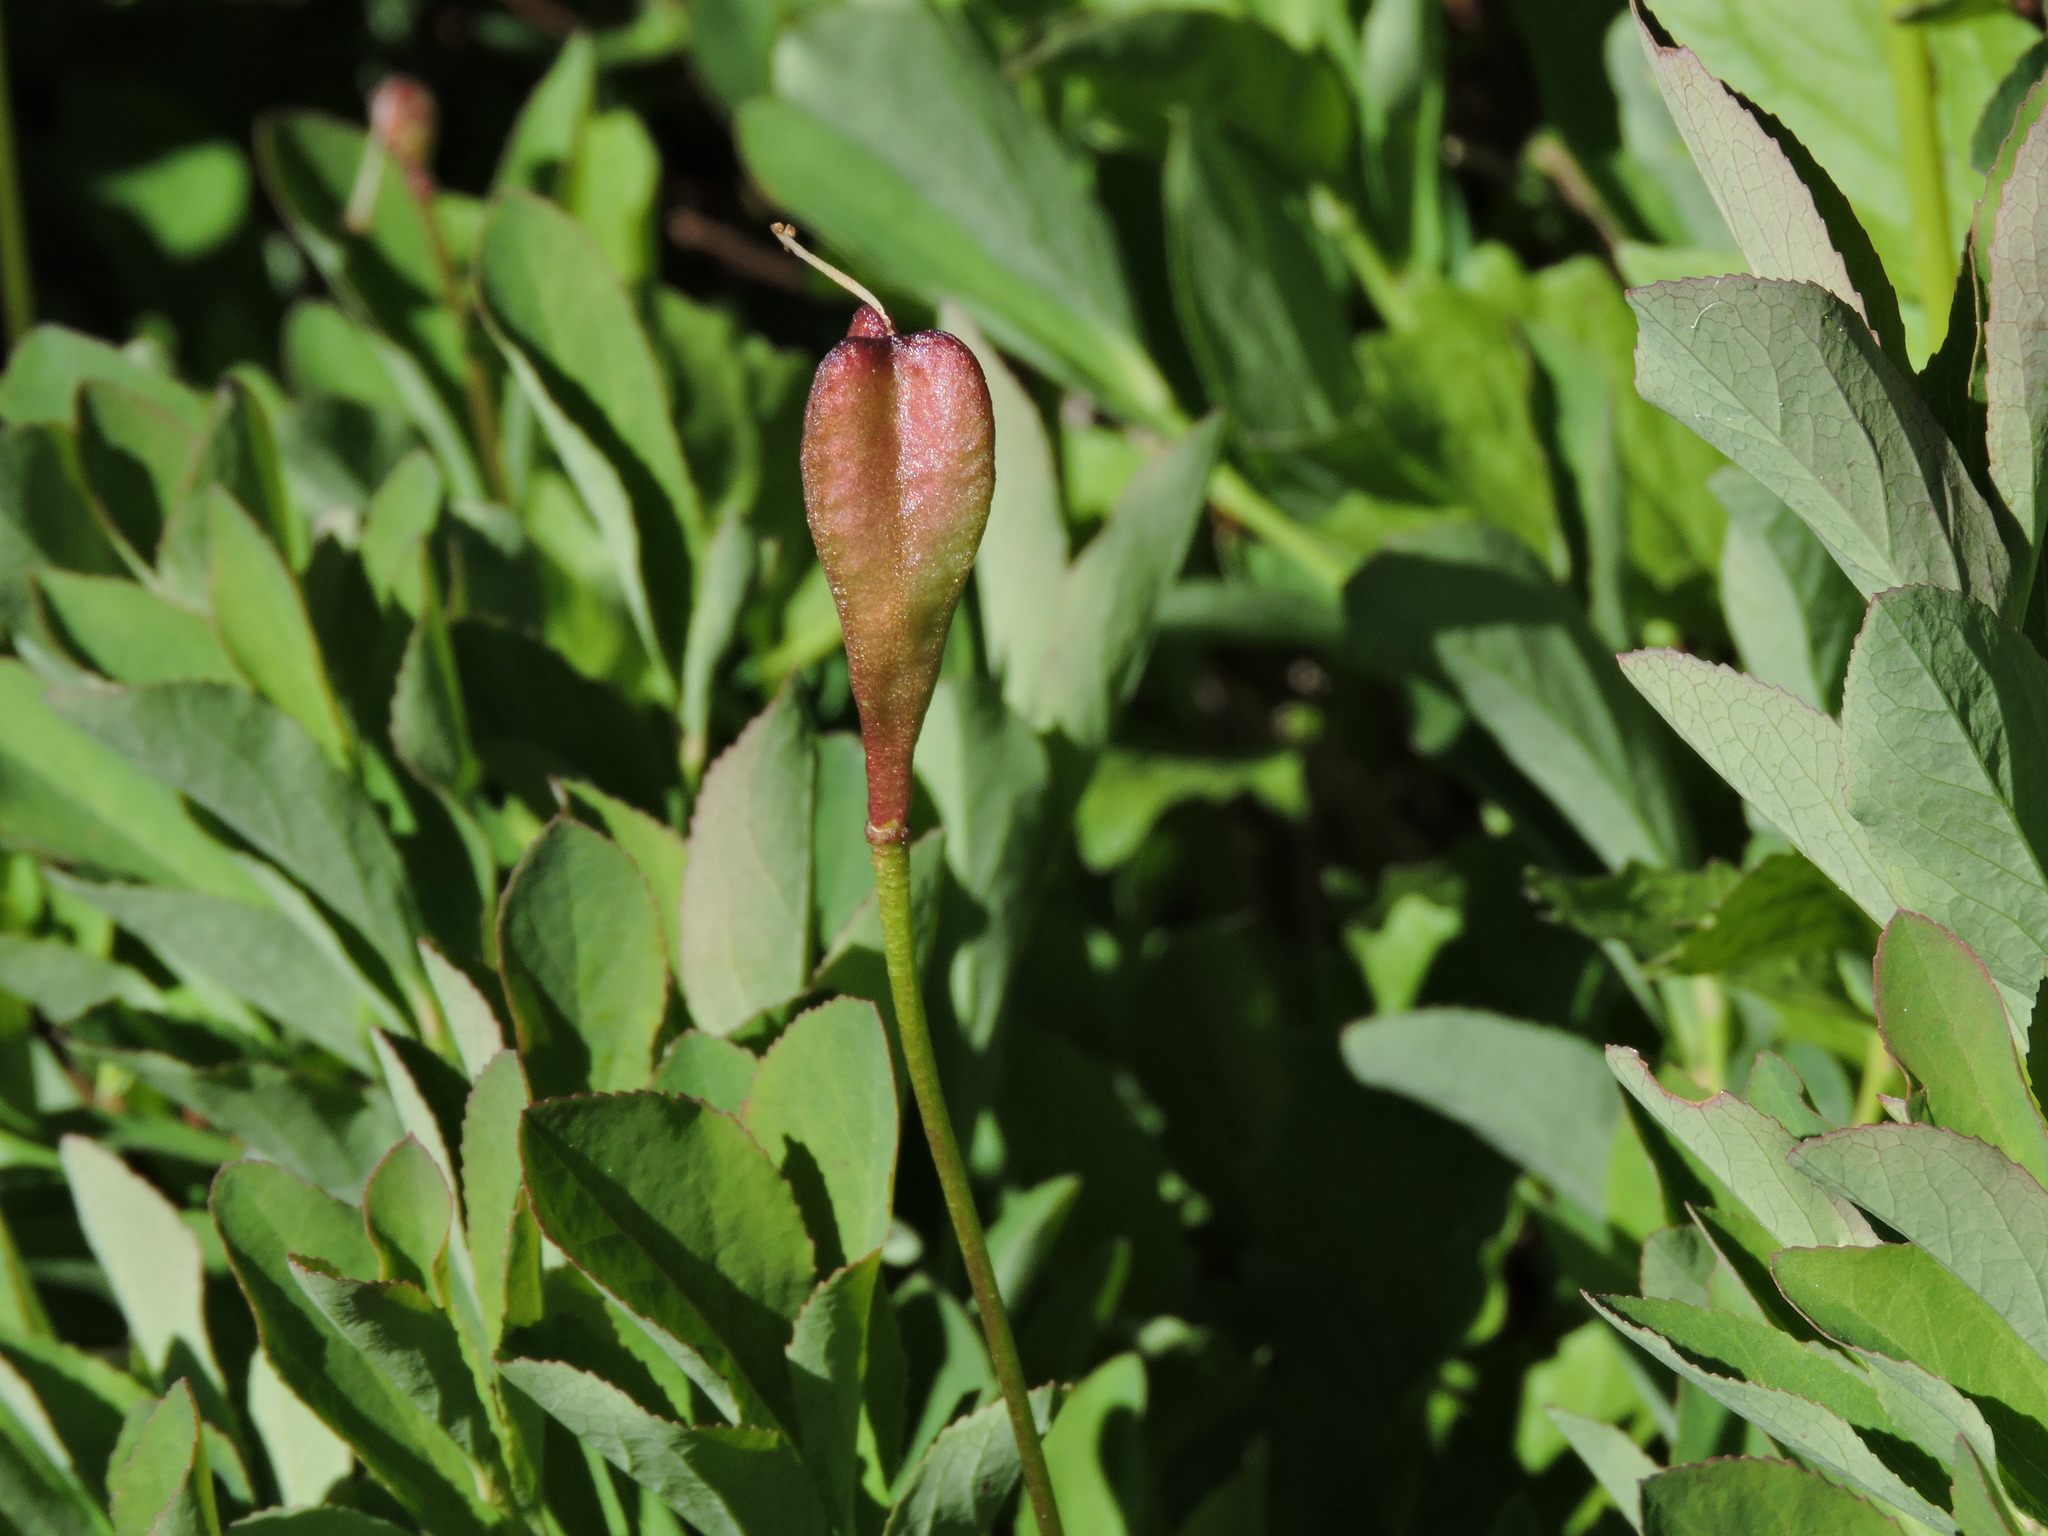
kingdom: Plantae
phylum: Tracheophyta
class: Liliopsida
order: Liliales
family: Liliaceae
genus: Erythronium
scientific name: Erythronium montanum
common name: Avalanche lily
